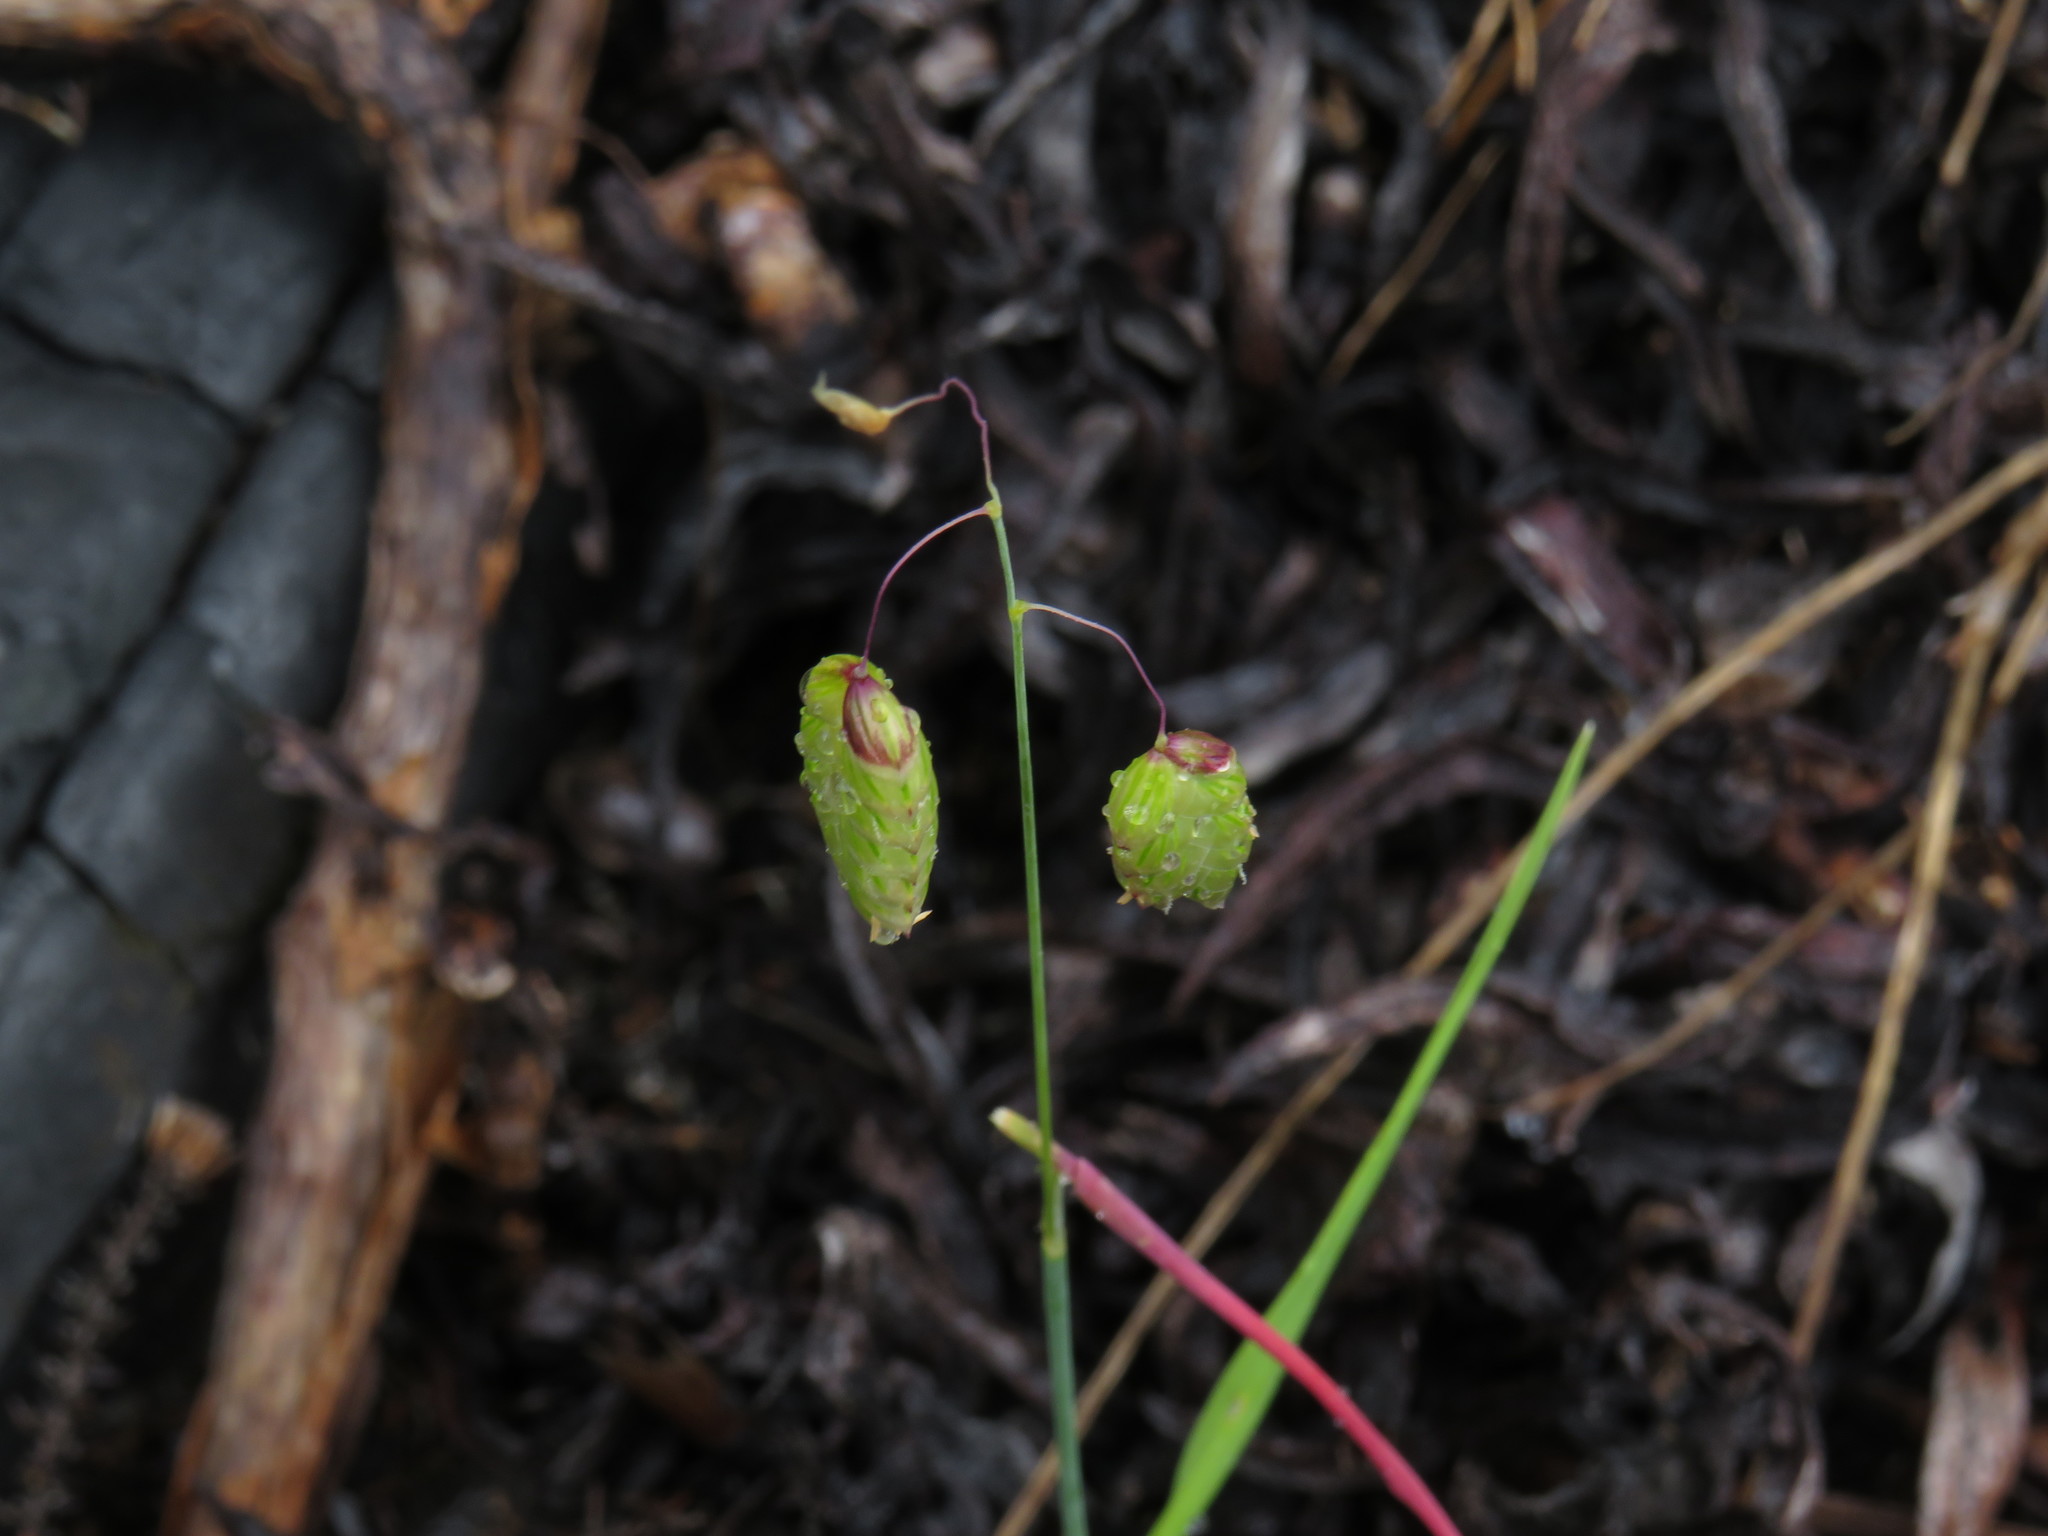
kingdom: Plantae
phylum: Tracheophyta
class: Liliopsida
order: Poales
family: Poaceae
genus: Briza
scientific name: Briza maxima
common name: Big quakinggrass
